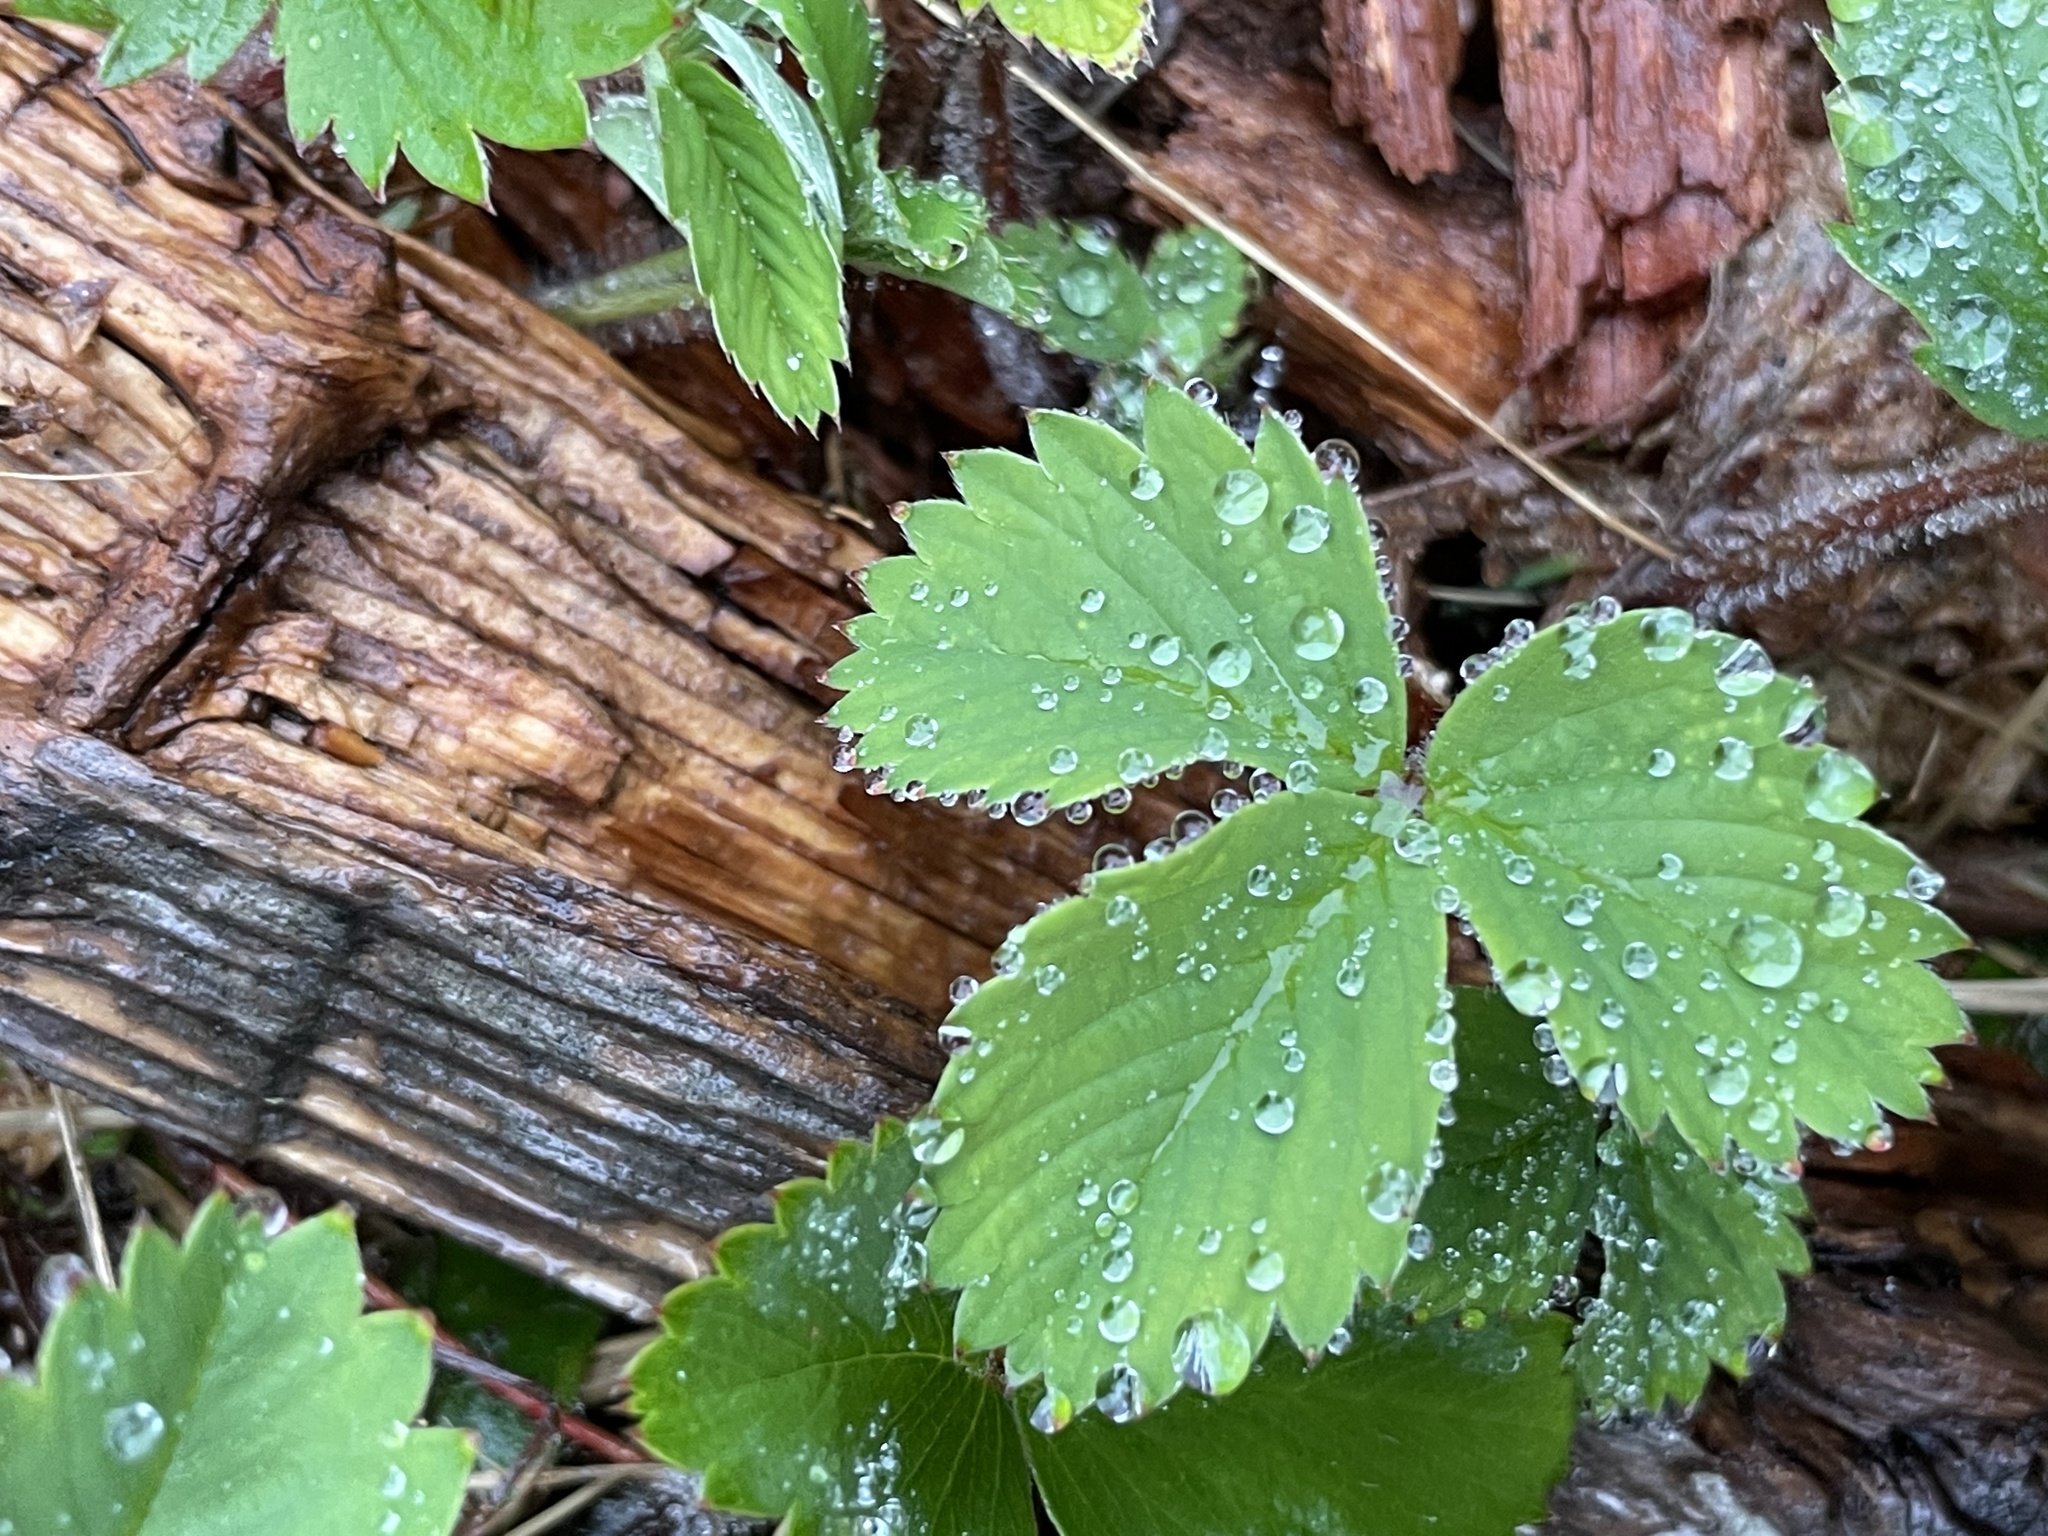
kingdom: Plantae
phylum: Tracheophyta
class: Magnoliopsida
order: Rosales
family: Rosaceae
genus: Fragaria
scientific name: Fragaria virginiana
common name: Thickleaved wild strawberry
